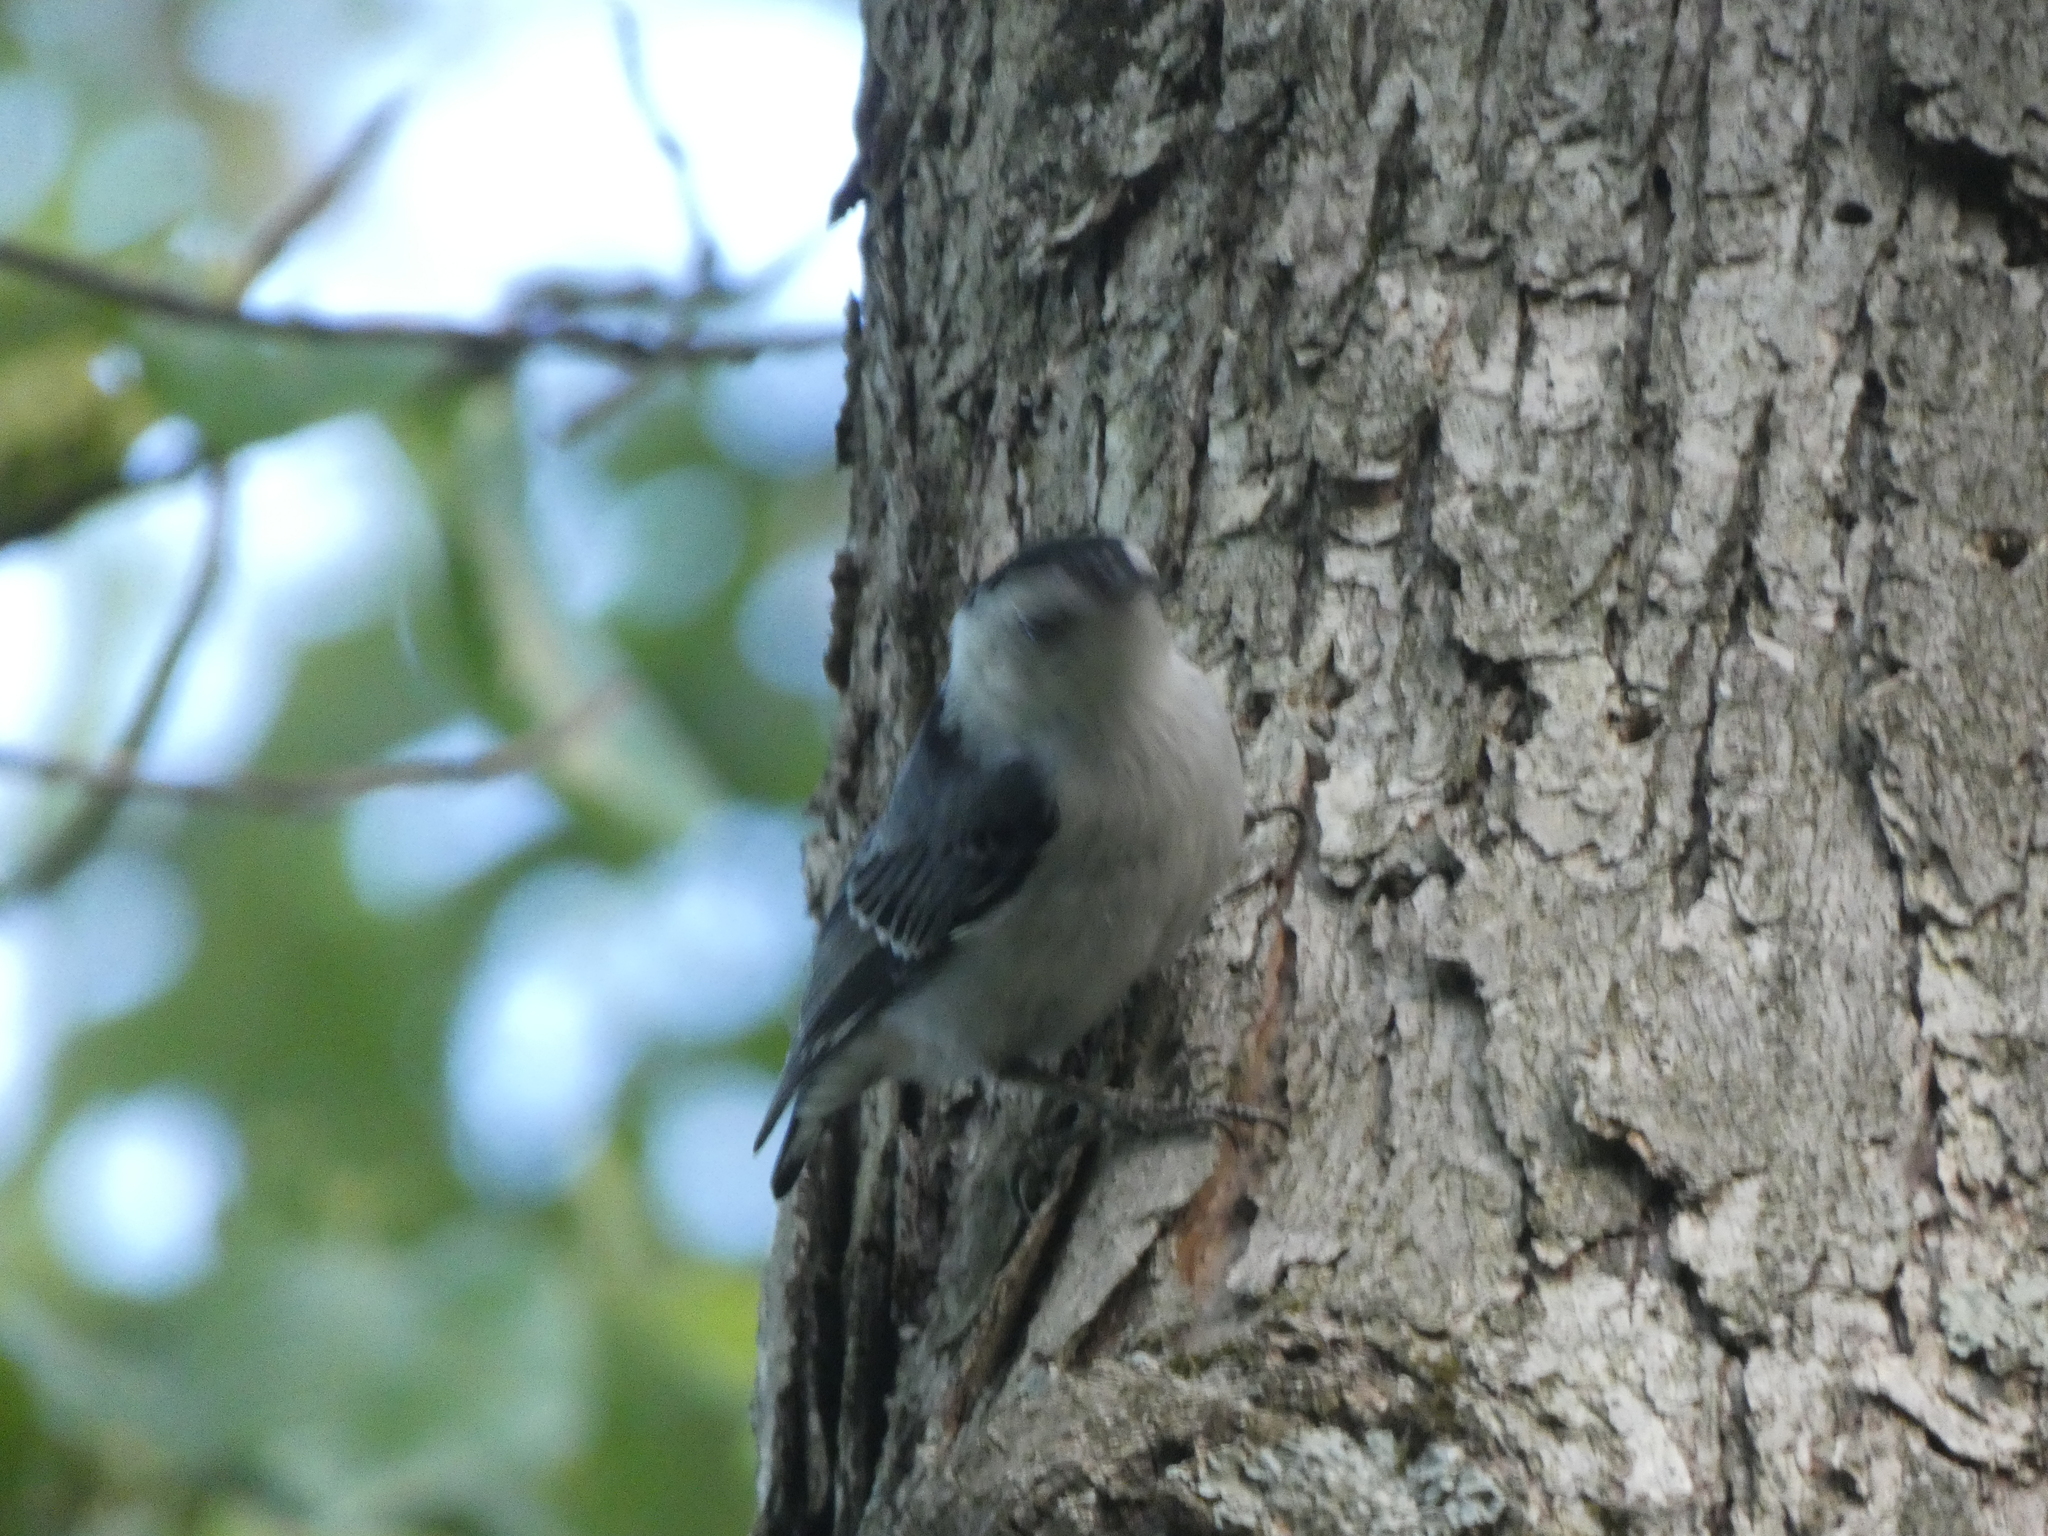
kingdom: Animalia
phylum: Chordata
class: Aves
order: Passeriformes
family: Sittidae
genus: Sitta
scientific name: Sitta carolinensis
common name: White-breasted nuthatch
